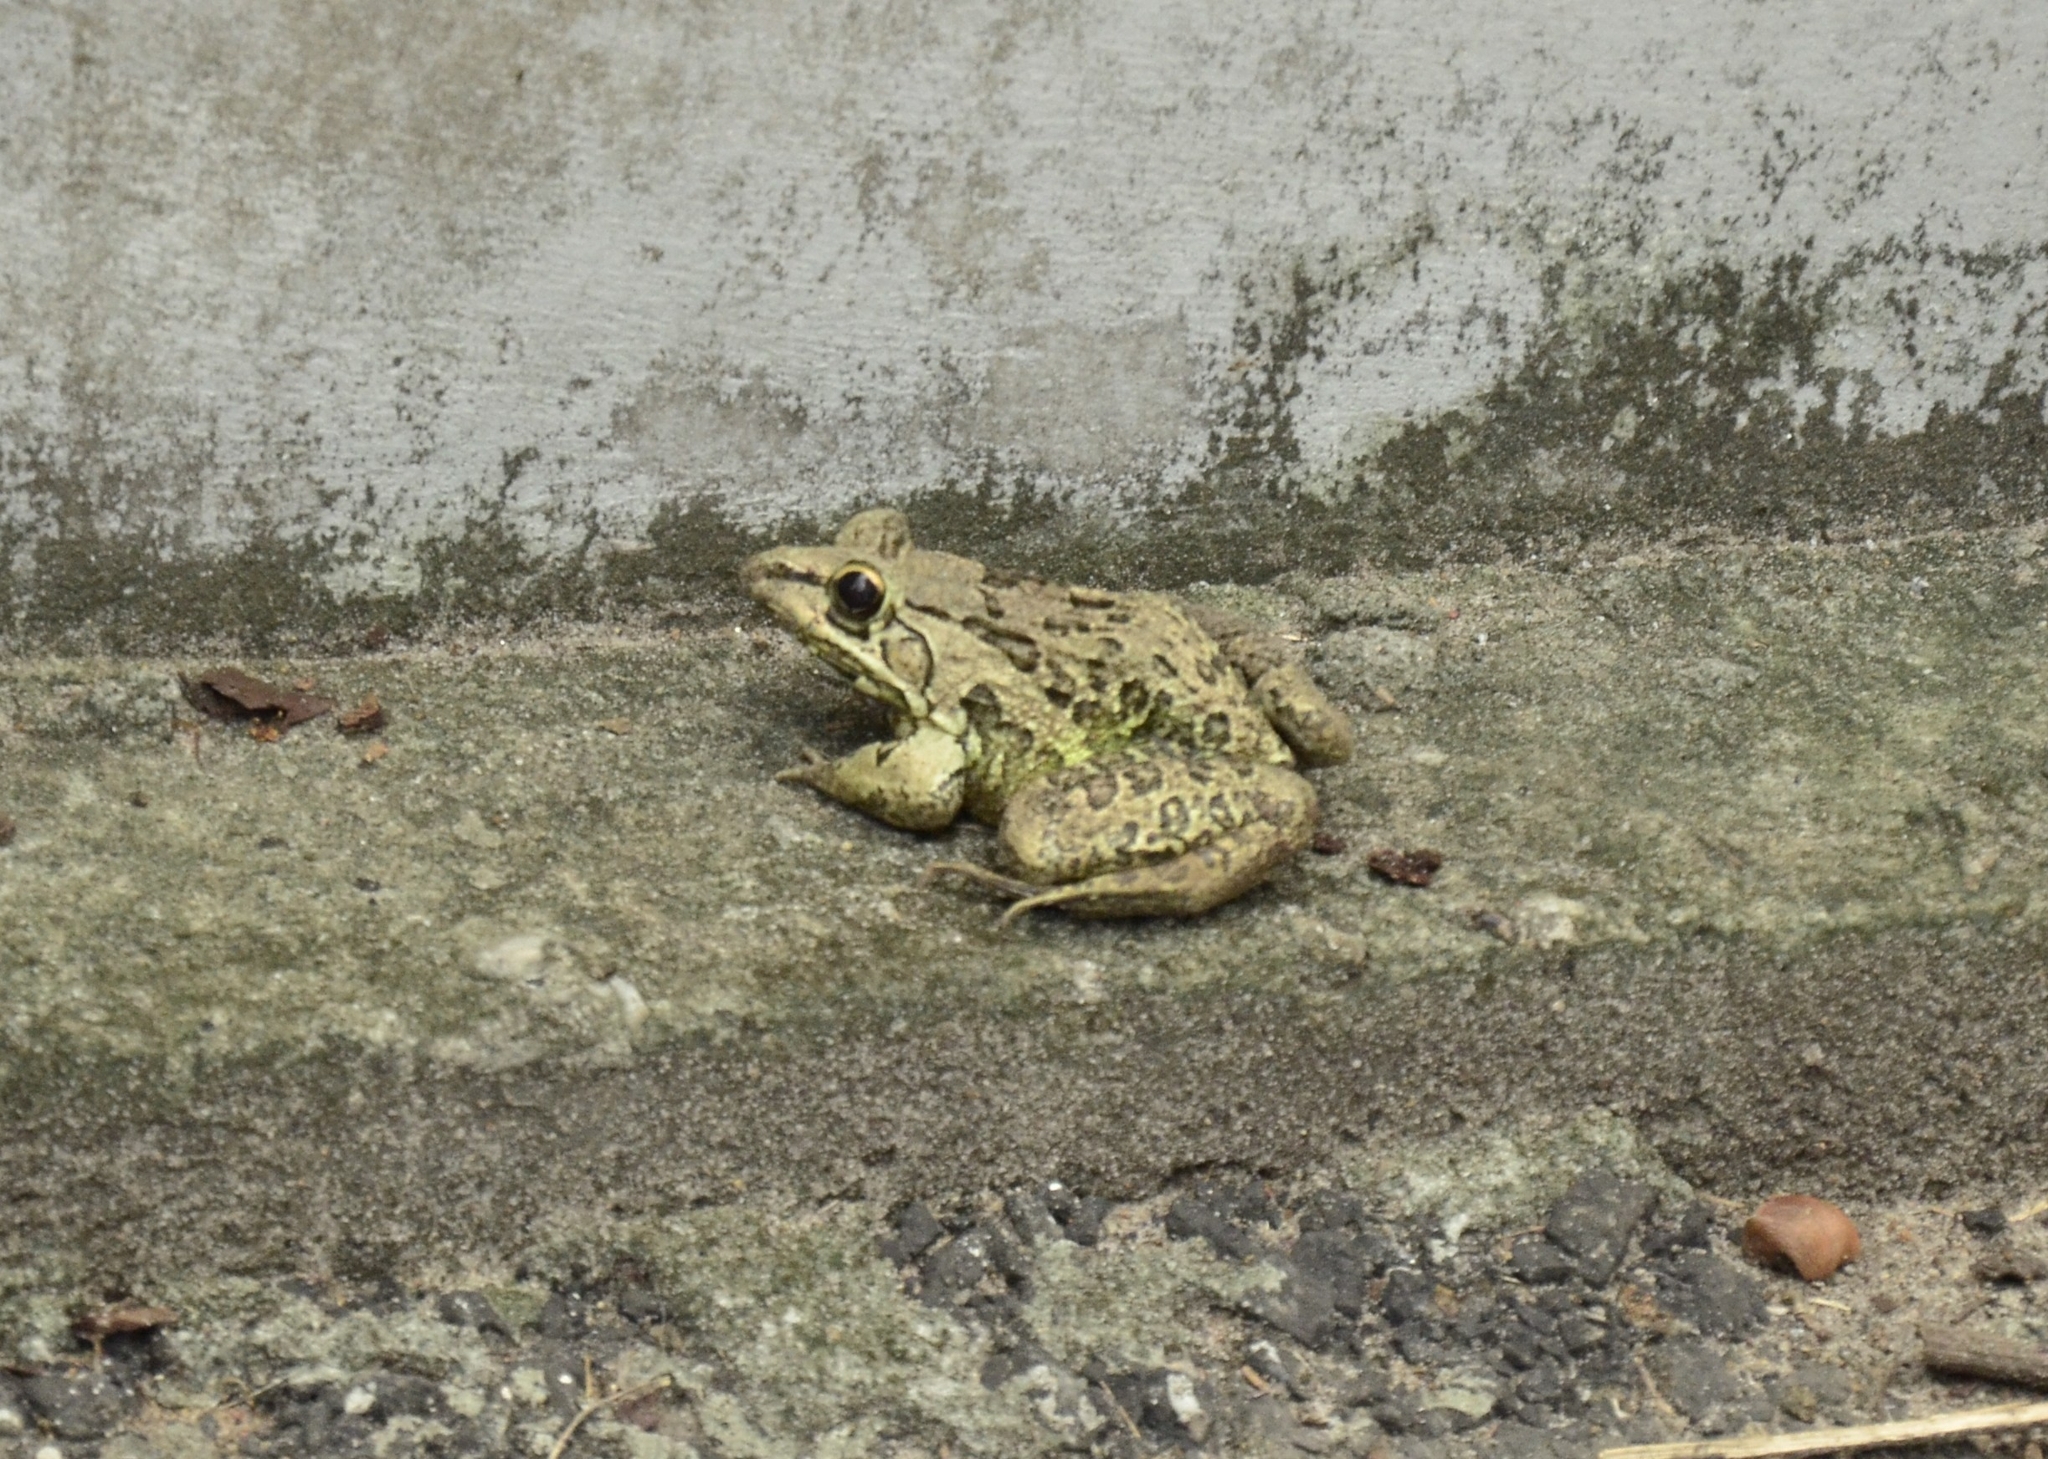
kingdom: Animalia
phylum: Chordata
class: Amphibia
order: Anura
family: Dicroglossidae
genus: Hoplobatrachus
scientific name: Hoplobatrachus tigerinus
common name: Indian bullfrog
